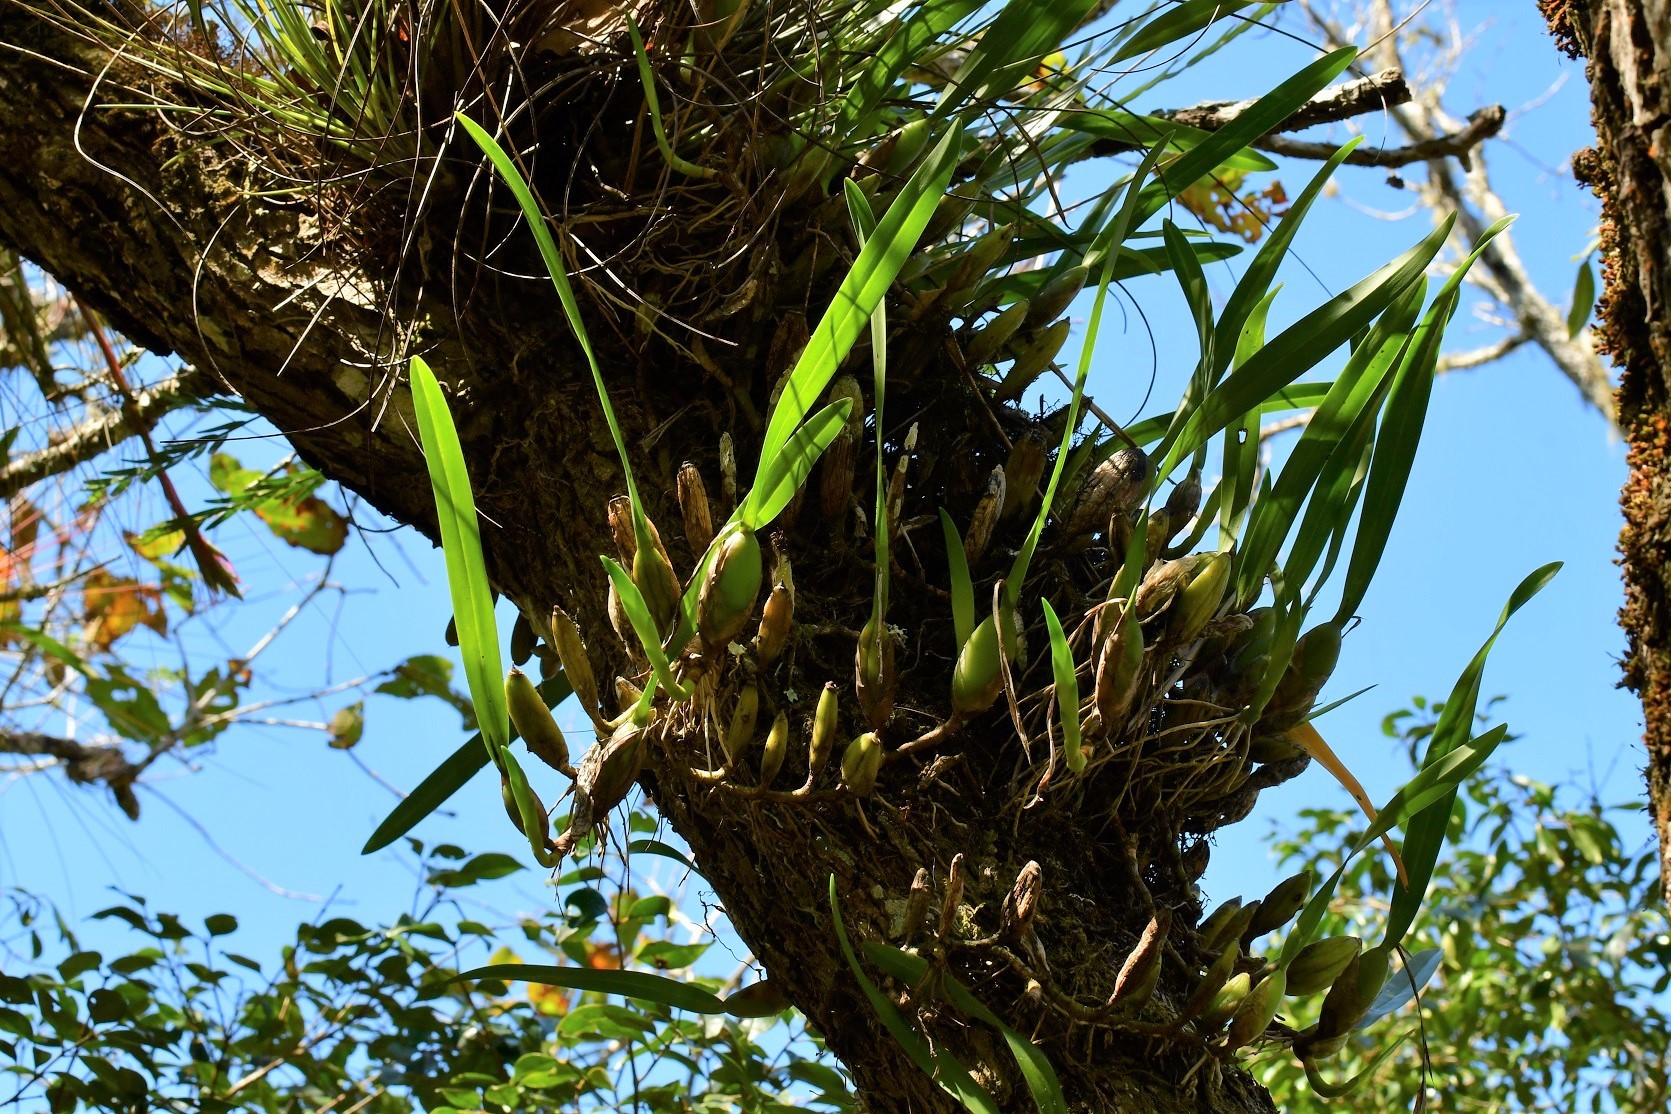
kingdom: Plantae
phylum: Tracheophyta
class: Liliopsida
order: Asparagales
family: Orchidaceae
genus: Nidema
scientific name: Nidema boothii
